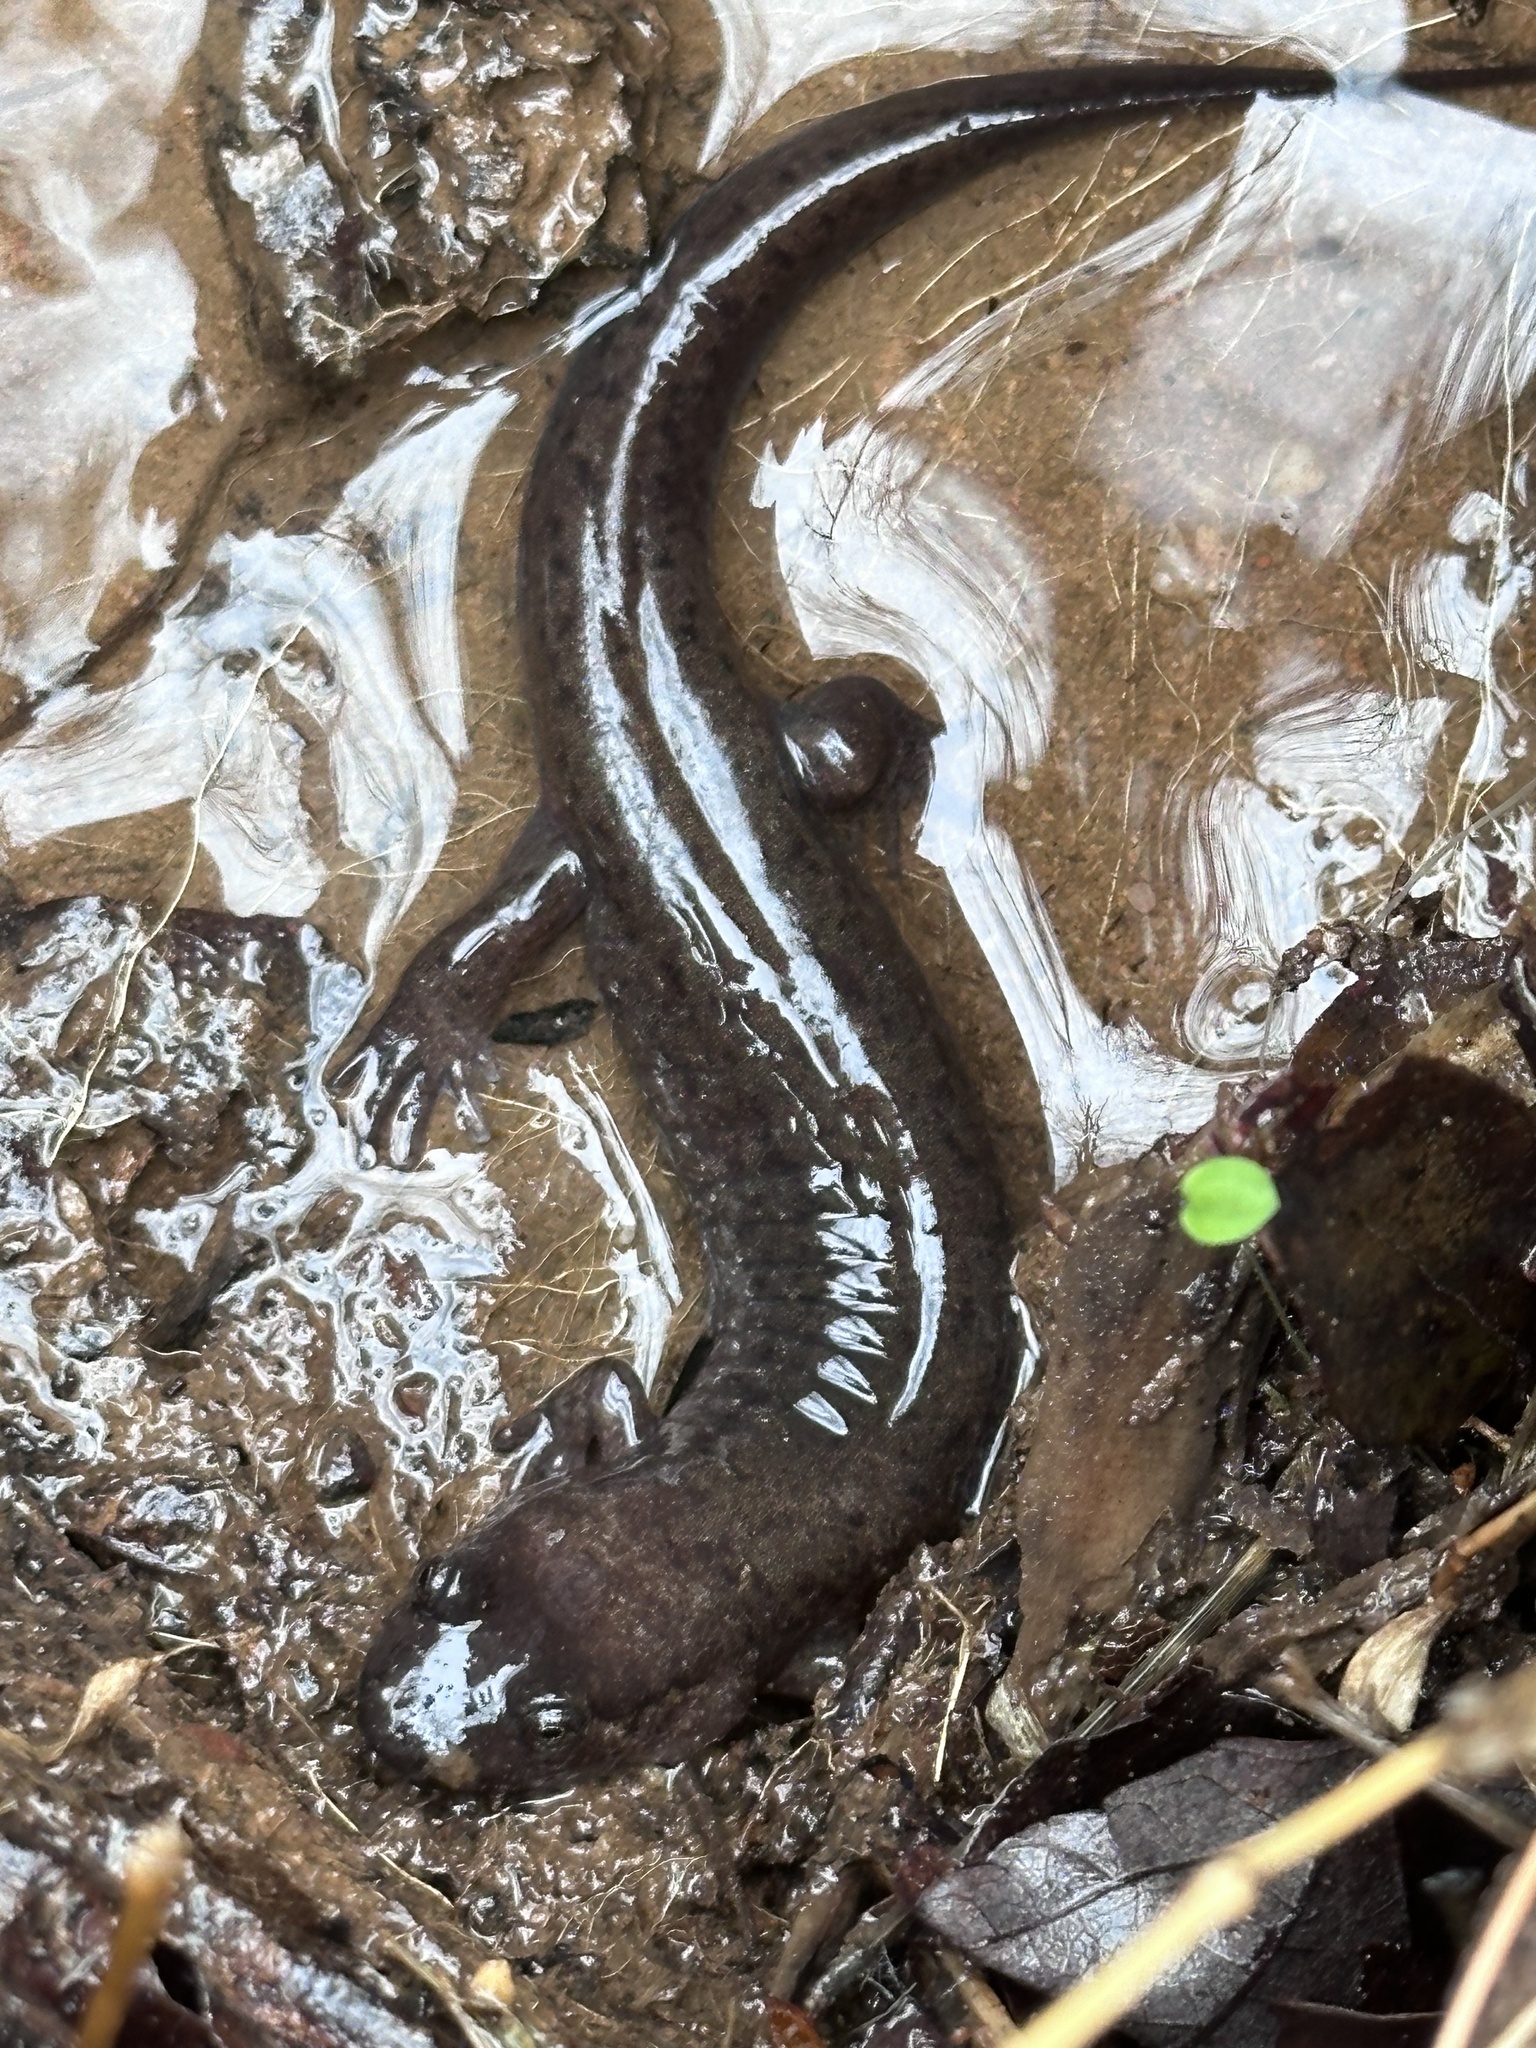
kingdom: Animalia
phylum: Chordata
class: Amphibia
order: Caudata
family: Plethodontidae
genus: Desmognathus
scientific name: Desmognathus
